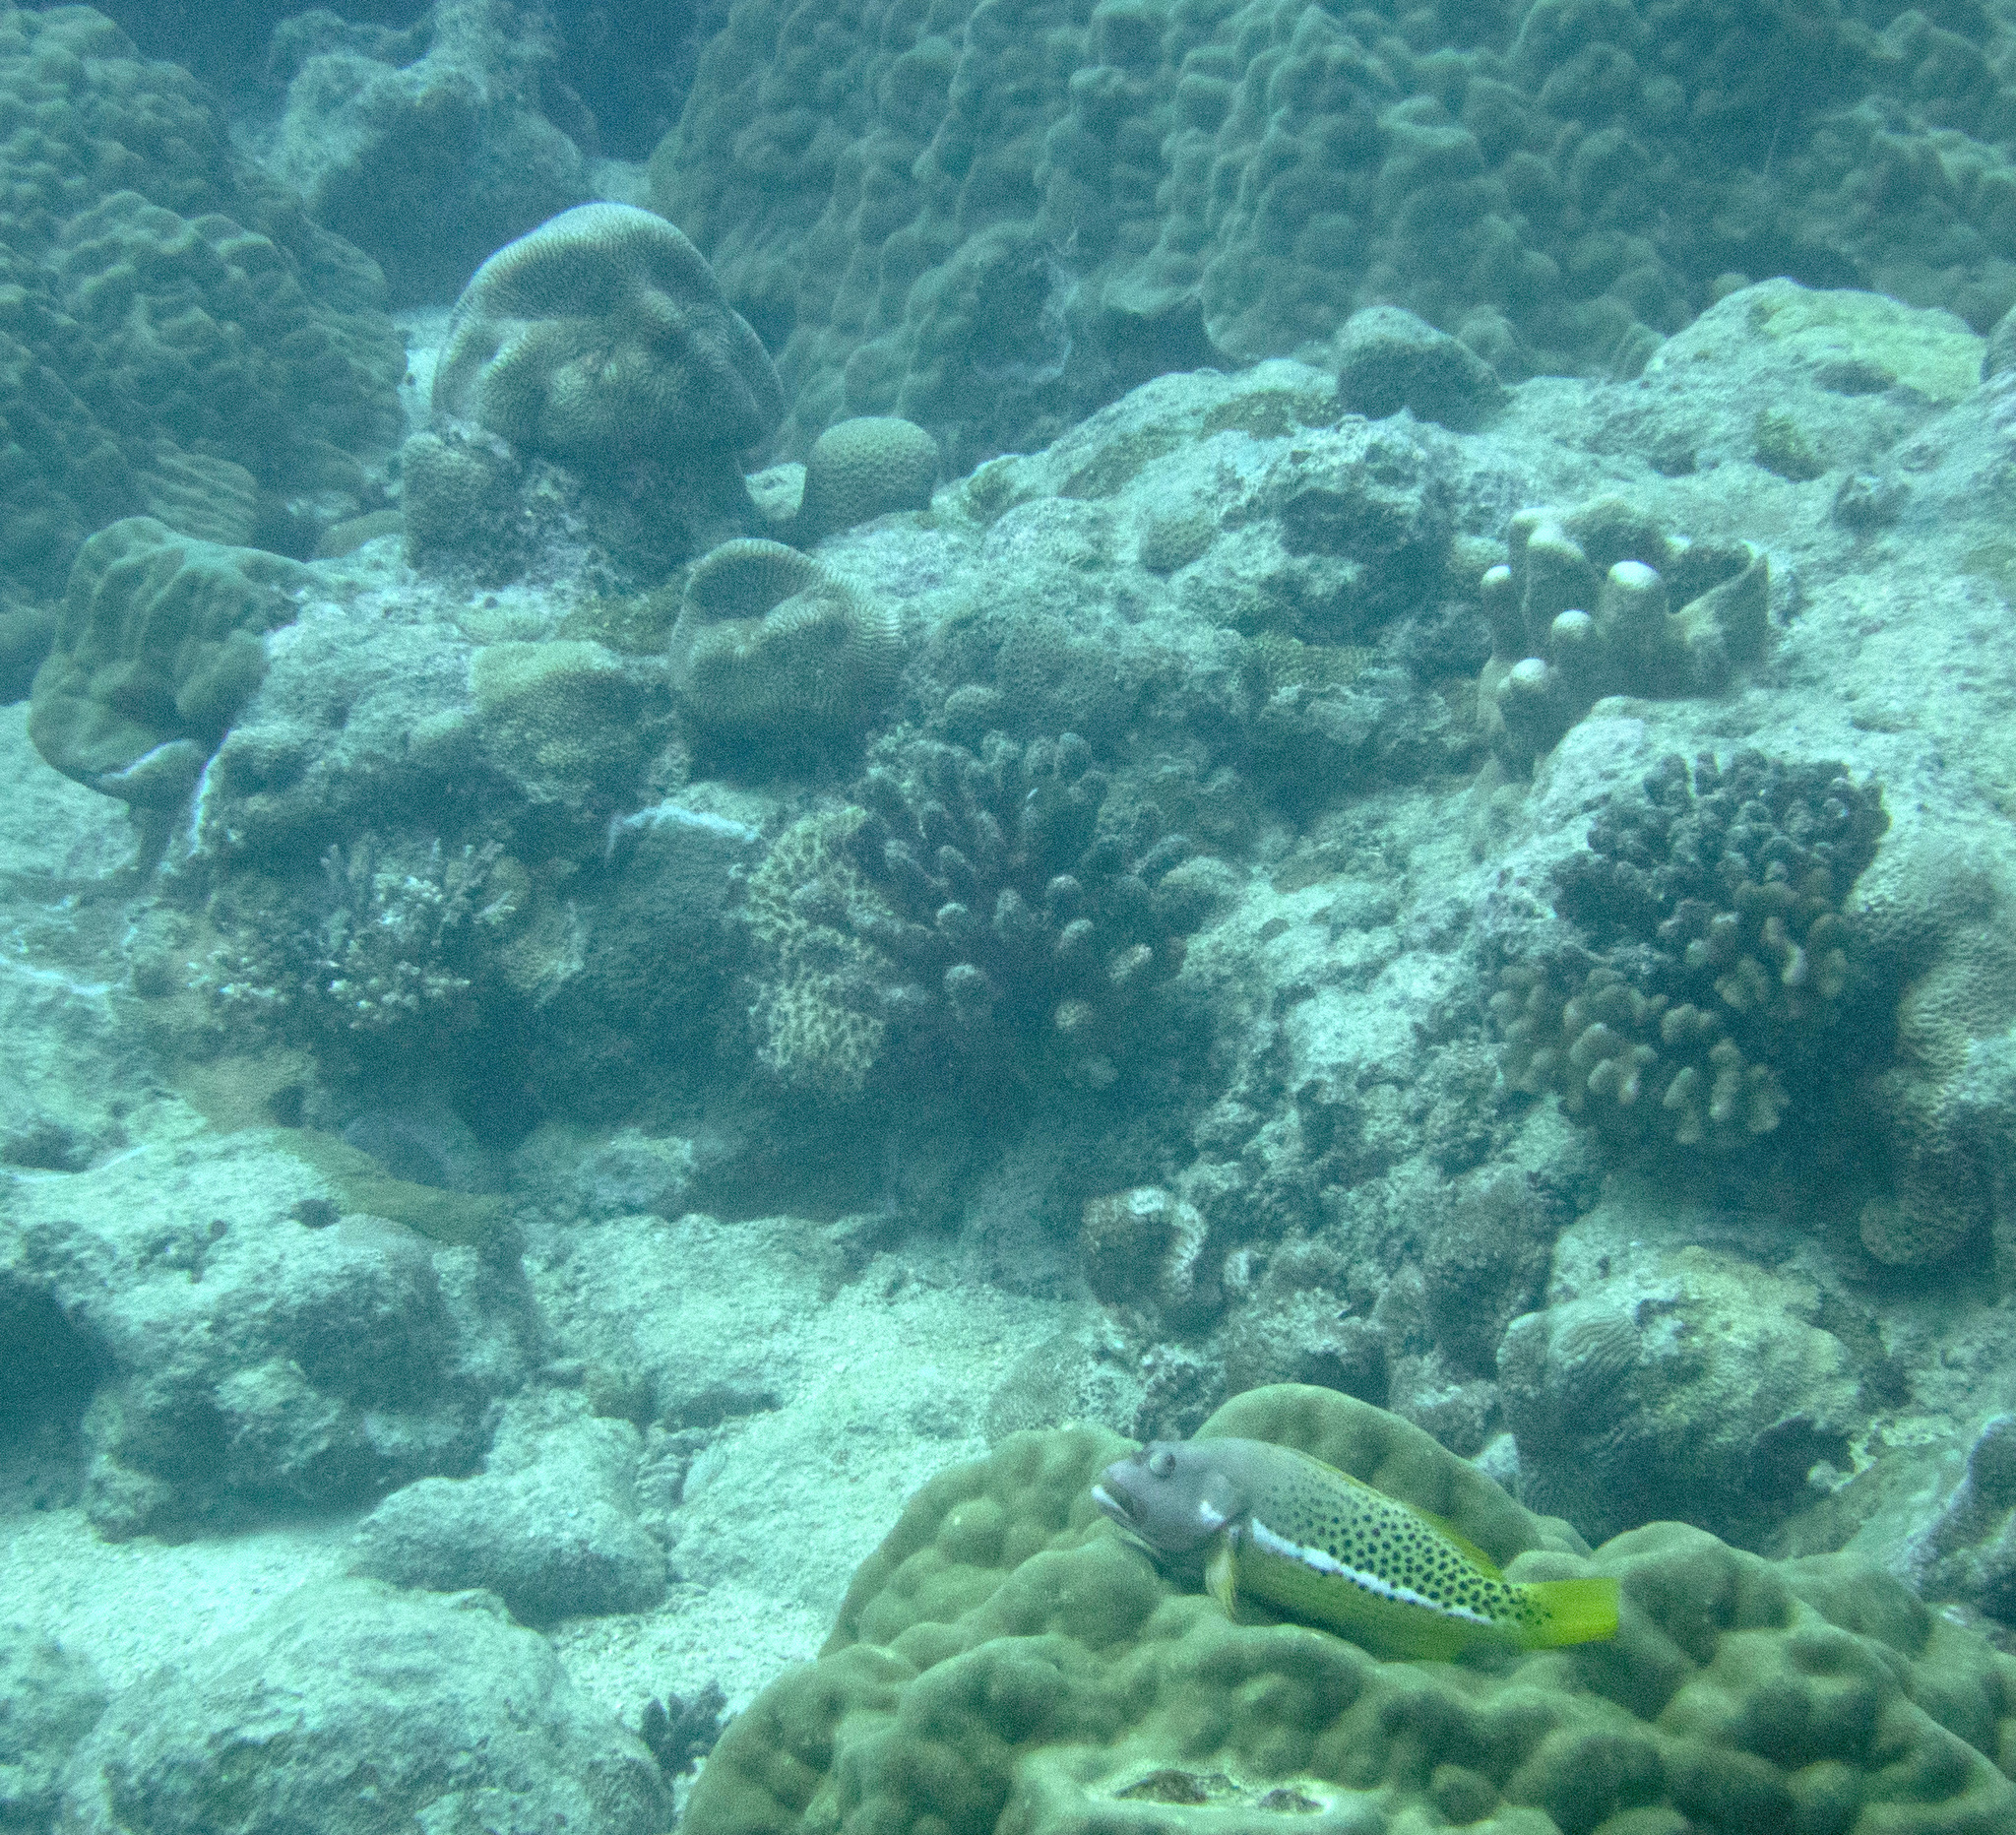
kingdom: Animalia
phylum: Chordata
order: Perciformes
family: Cirrhitidae
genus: Paracirrhites
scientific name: Paracirrhites hemistictus
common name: Halfspotted hawkfish
